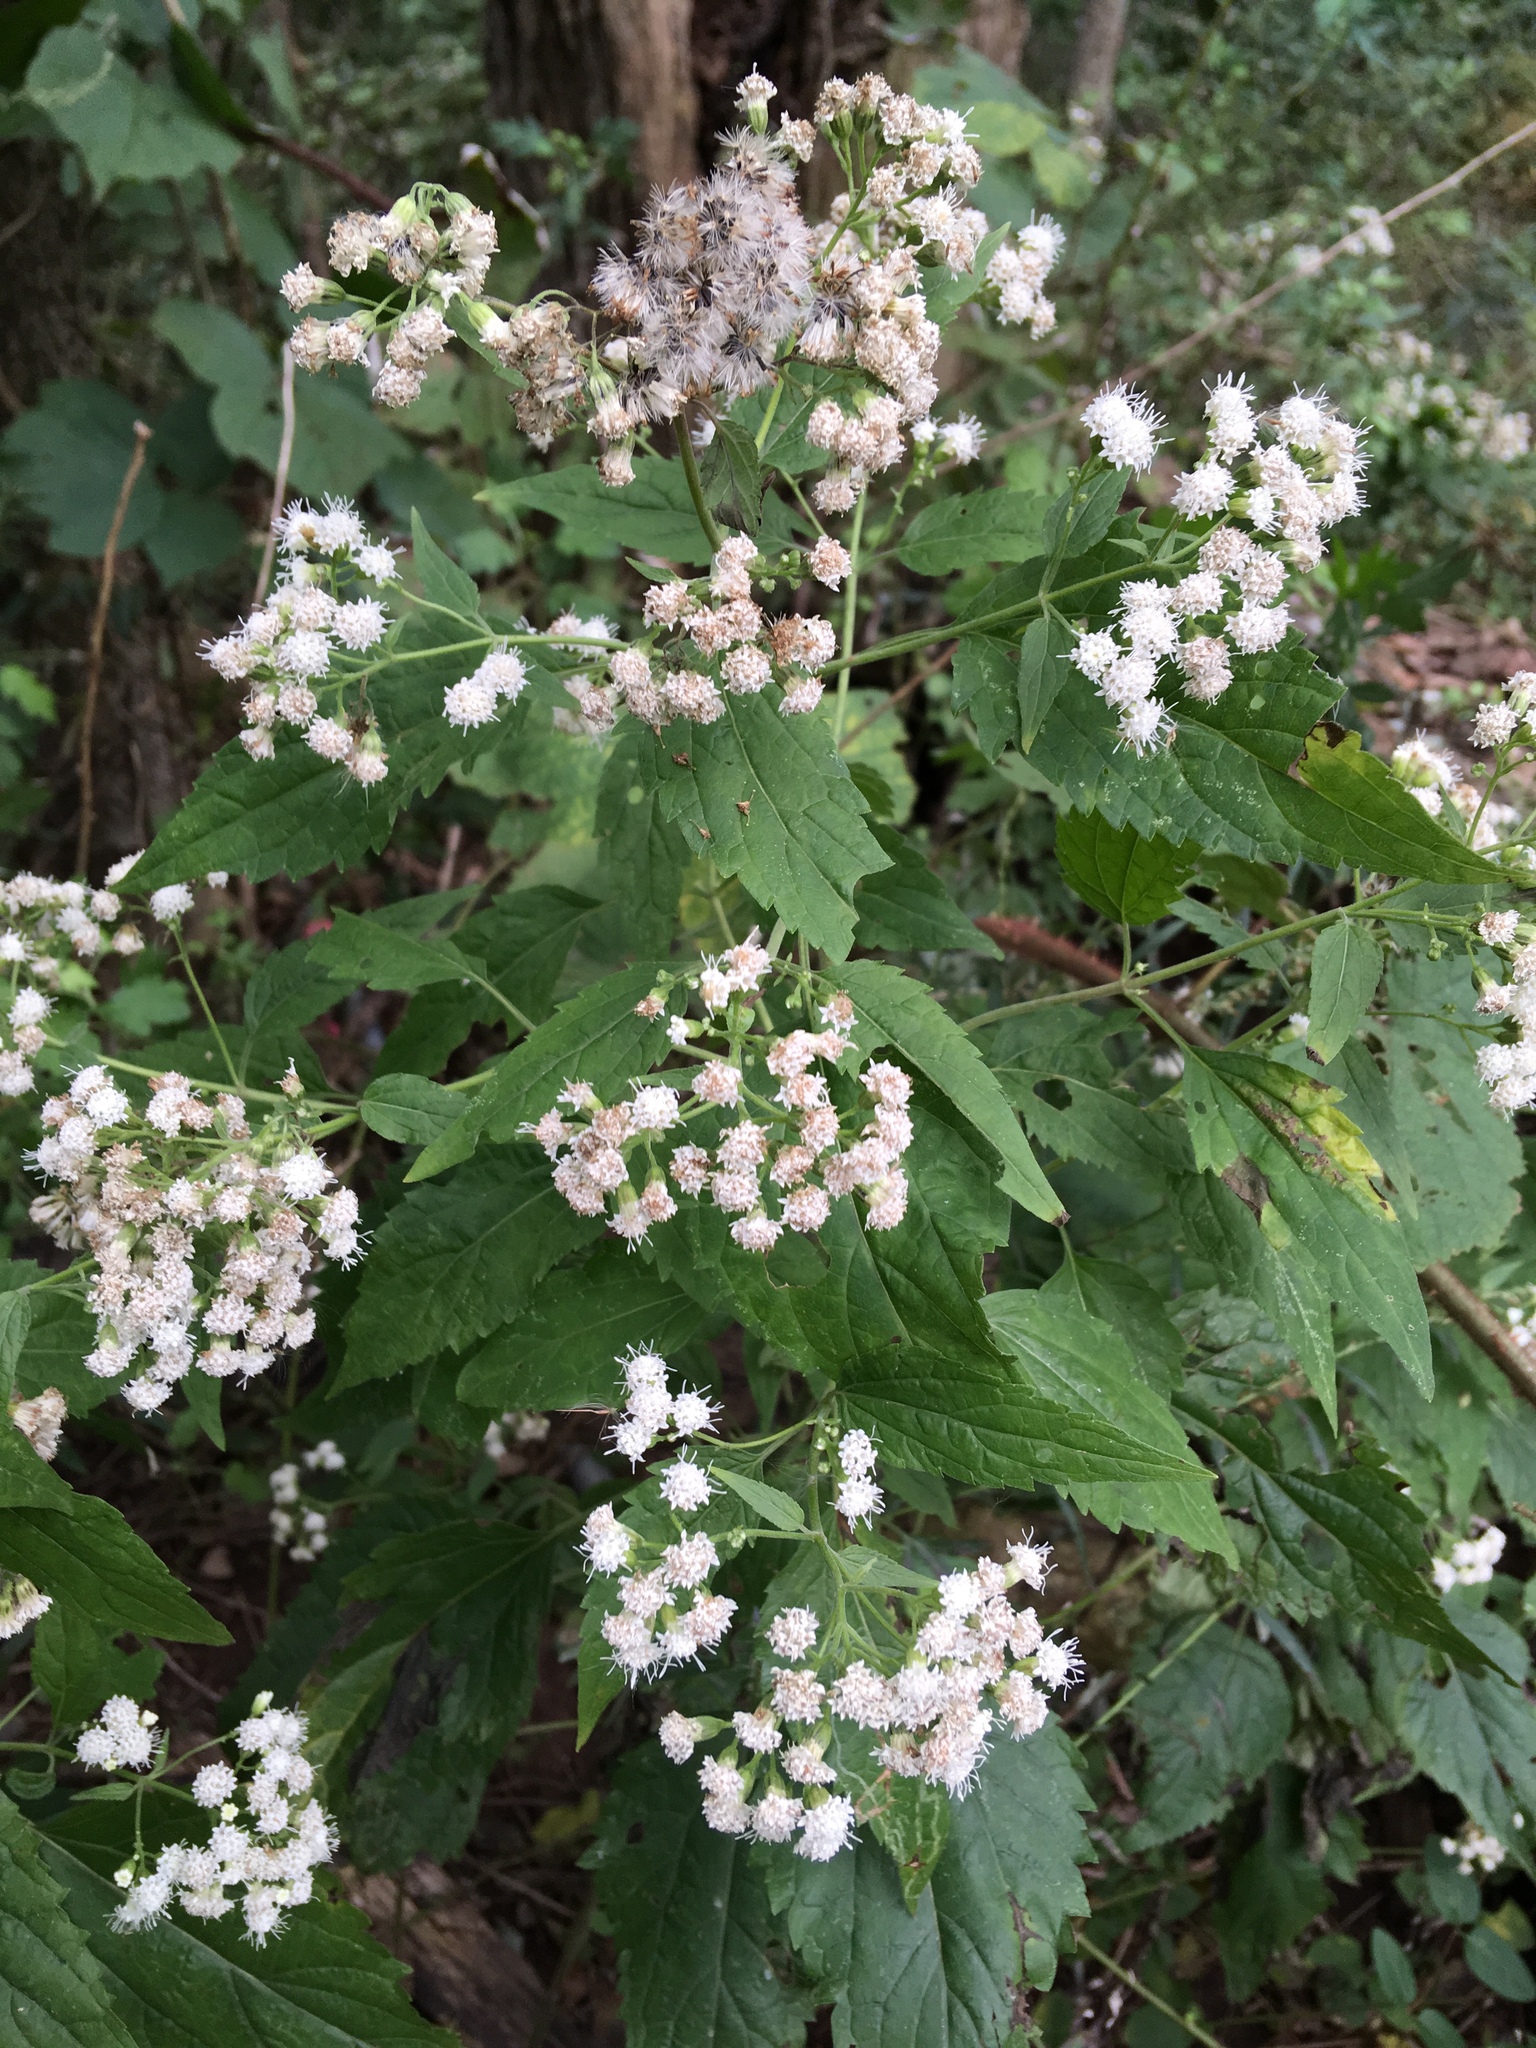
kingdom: Plantae
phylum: Tracheophyta
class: Magnoliopsida
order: Asterales
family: Asteraceae
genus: Ageratina
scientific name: Ageratina altissima
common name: White snakeroot
